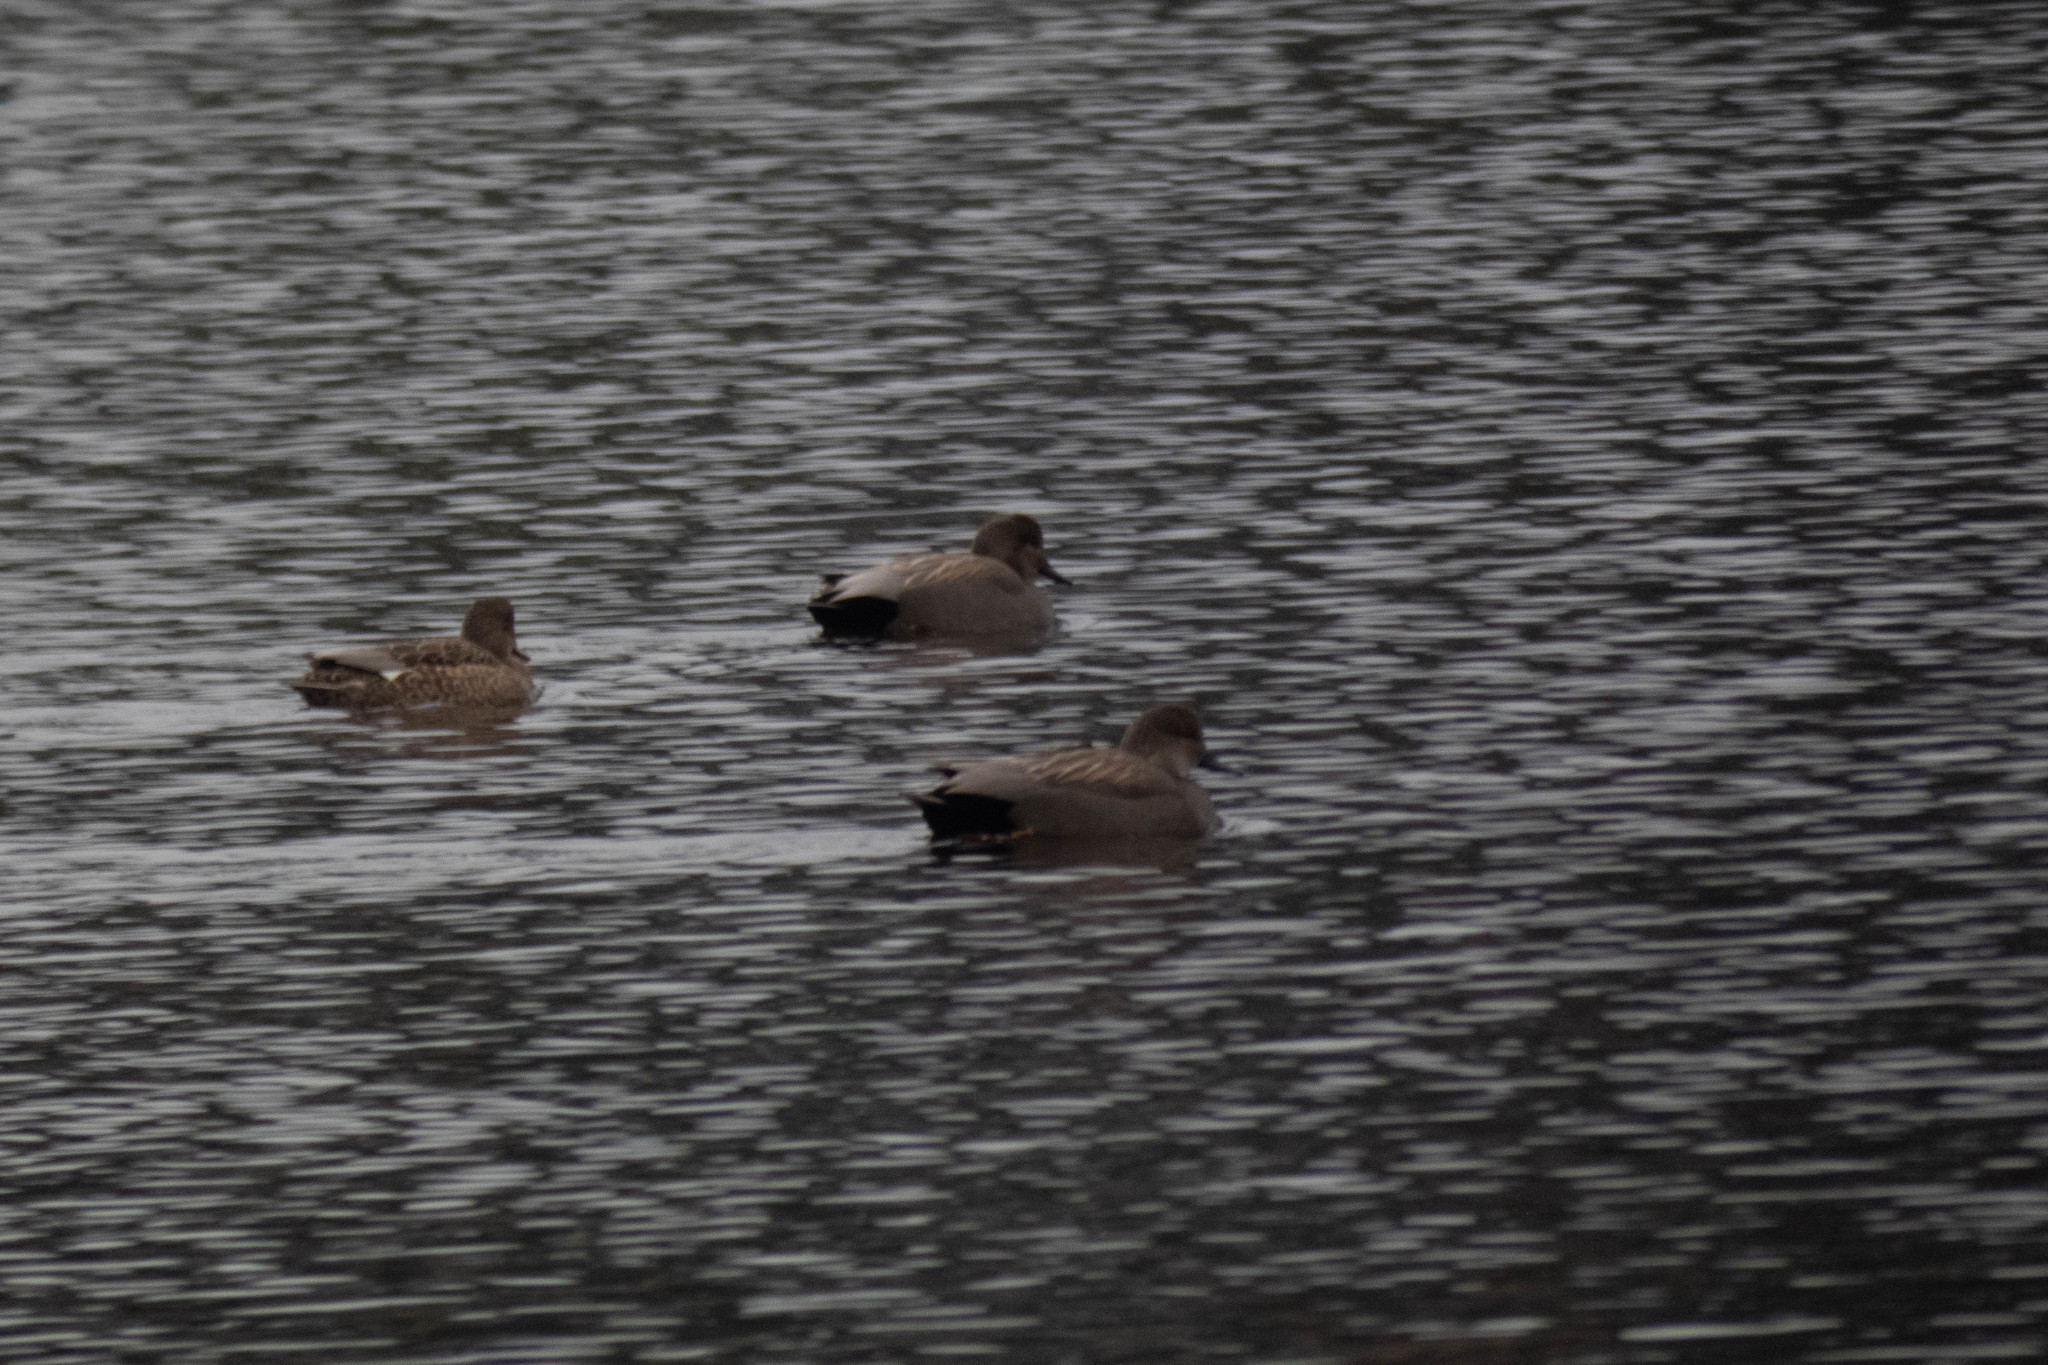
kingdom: Animalia
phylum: Chordata
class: Aves
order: Anseriformes
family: Anatidae
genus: Mareca
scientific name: Mareca strepera
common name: Gadwall
